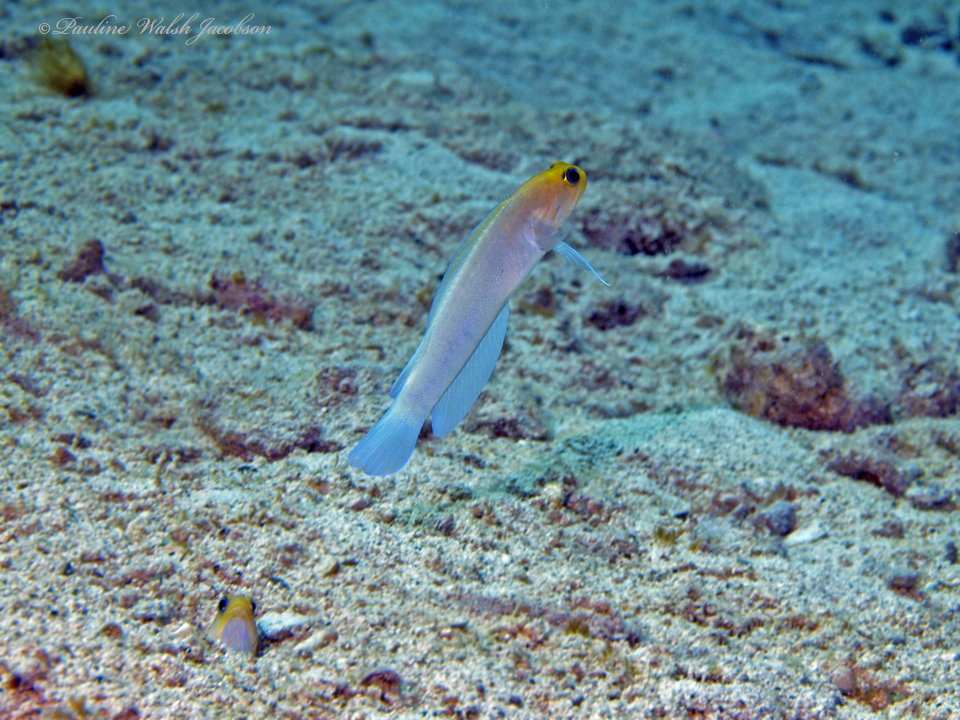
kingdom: Animalia
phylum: Chordata
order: Perciformes
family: Opistognathidae
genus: Opistognathus
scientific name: Opistognathus aurifrons
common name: Yellowhead jawfish
